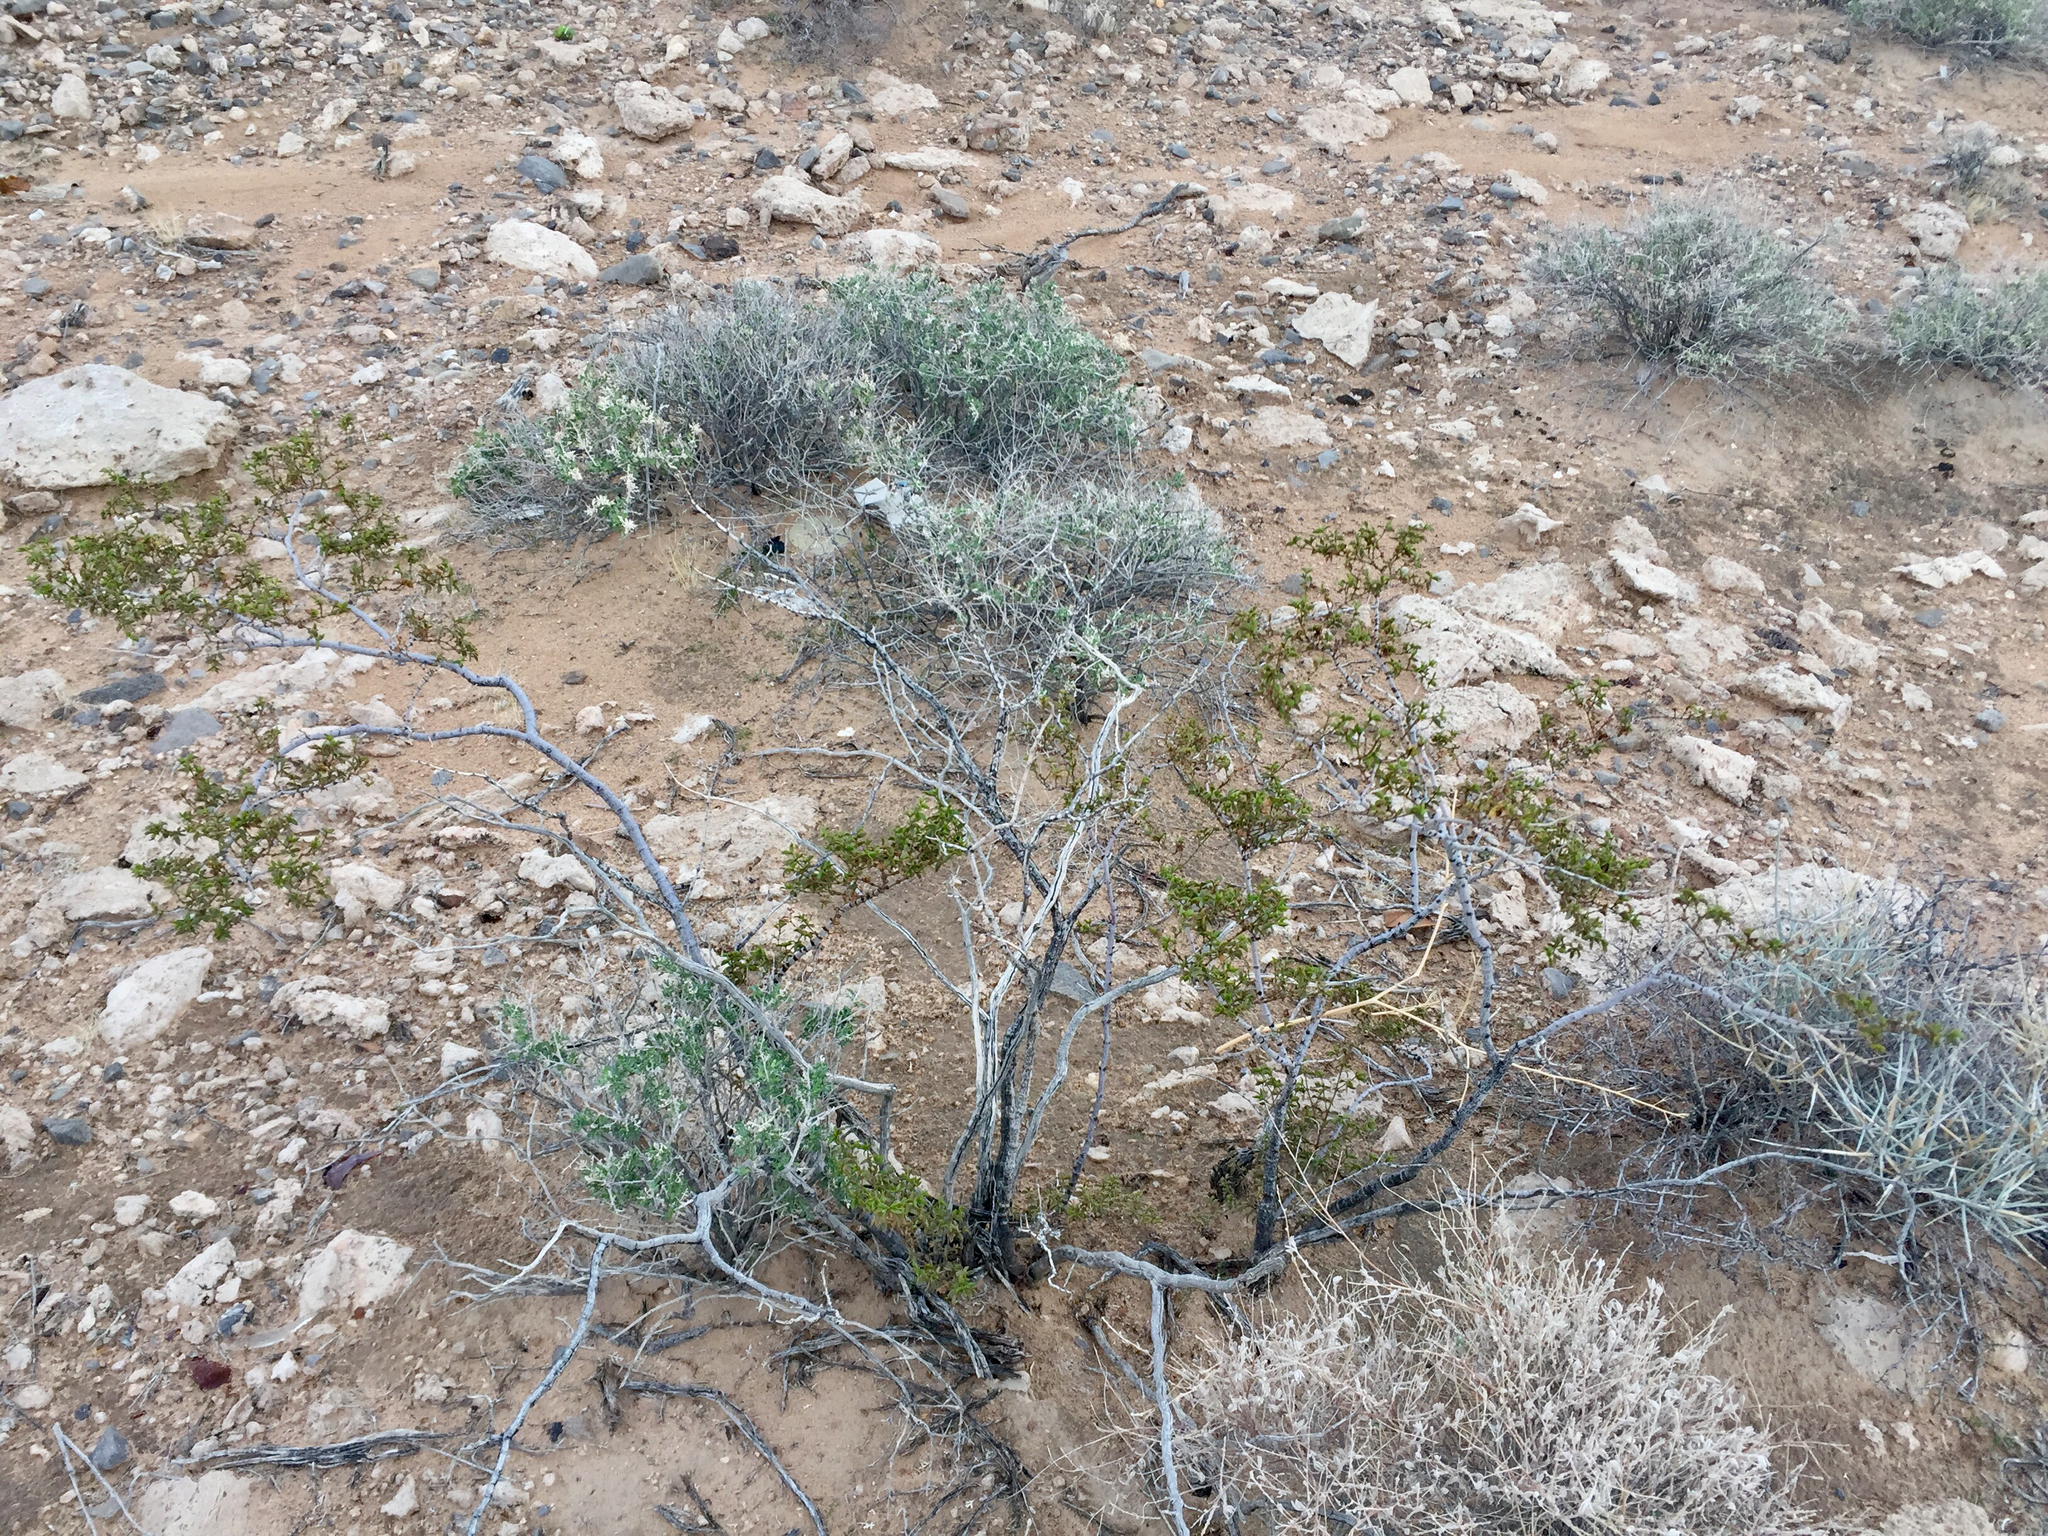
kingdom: Plantae
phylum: Tracheophyta
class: Magnoliopsida
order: Zygophyllales
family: Zygophyllaceae
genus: Larrea
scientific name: Larrea tridentata
